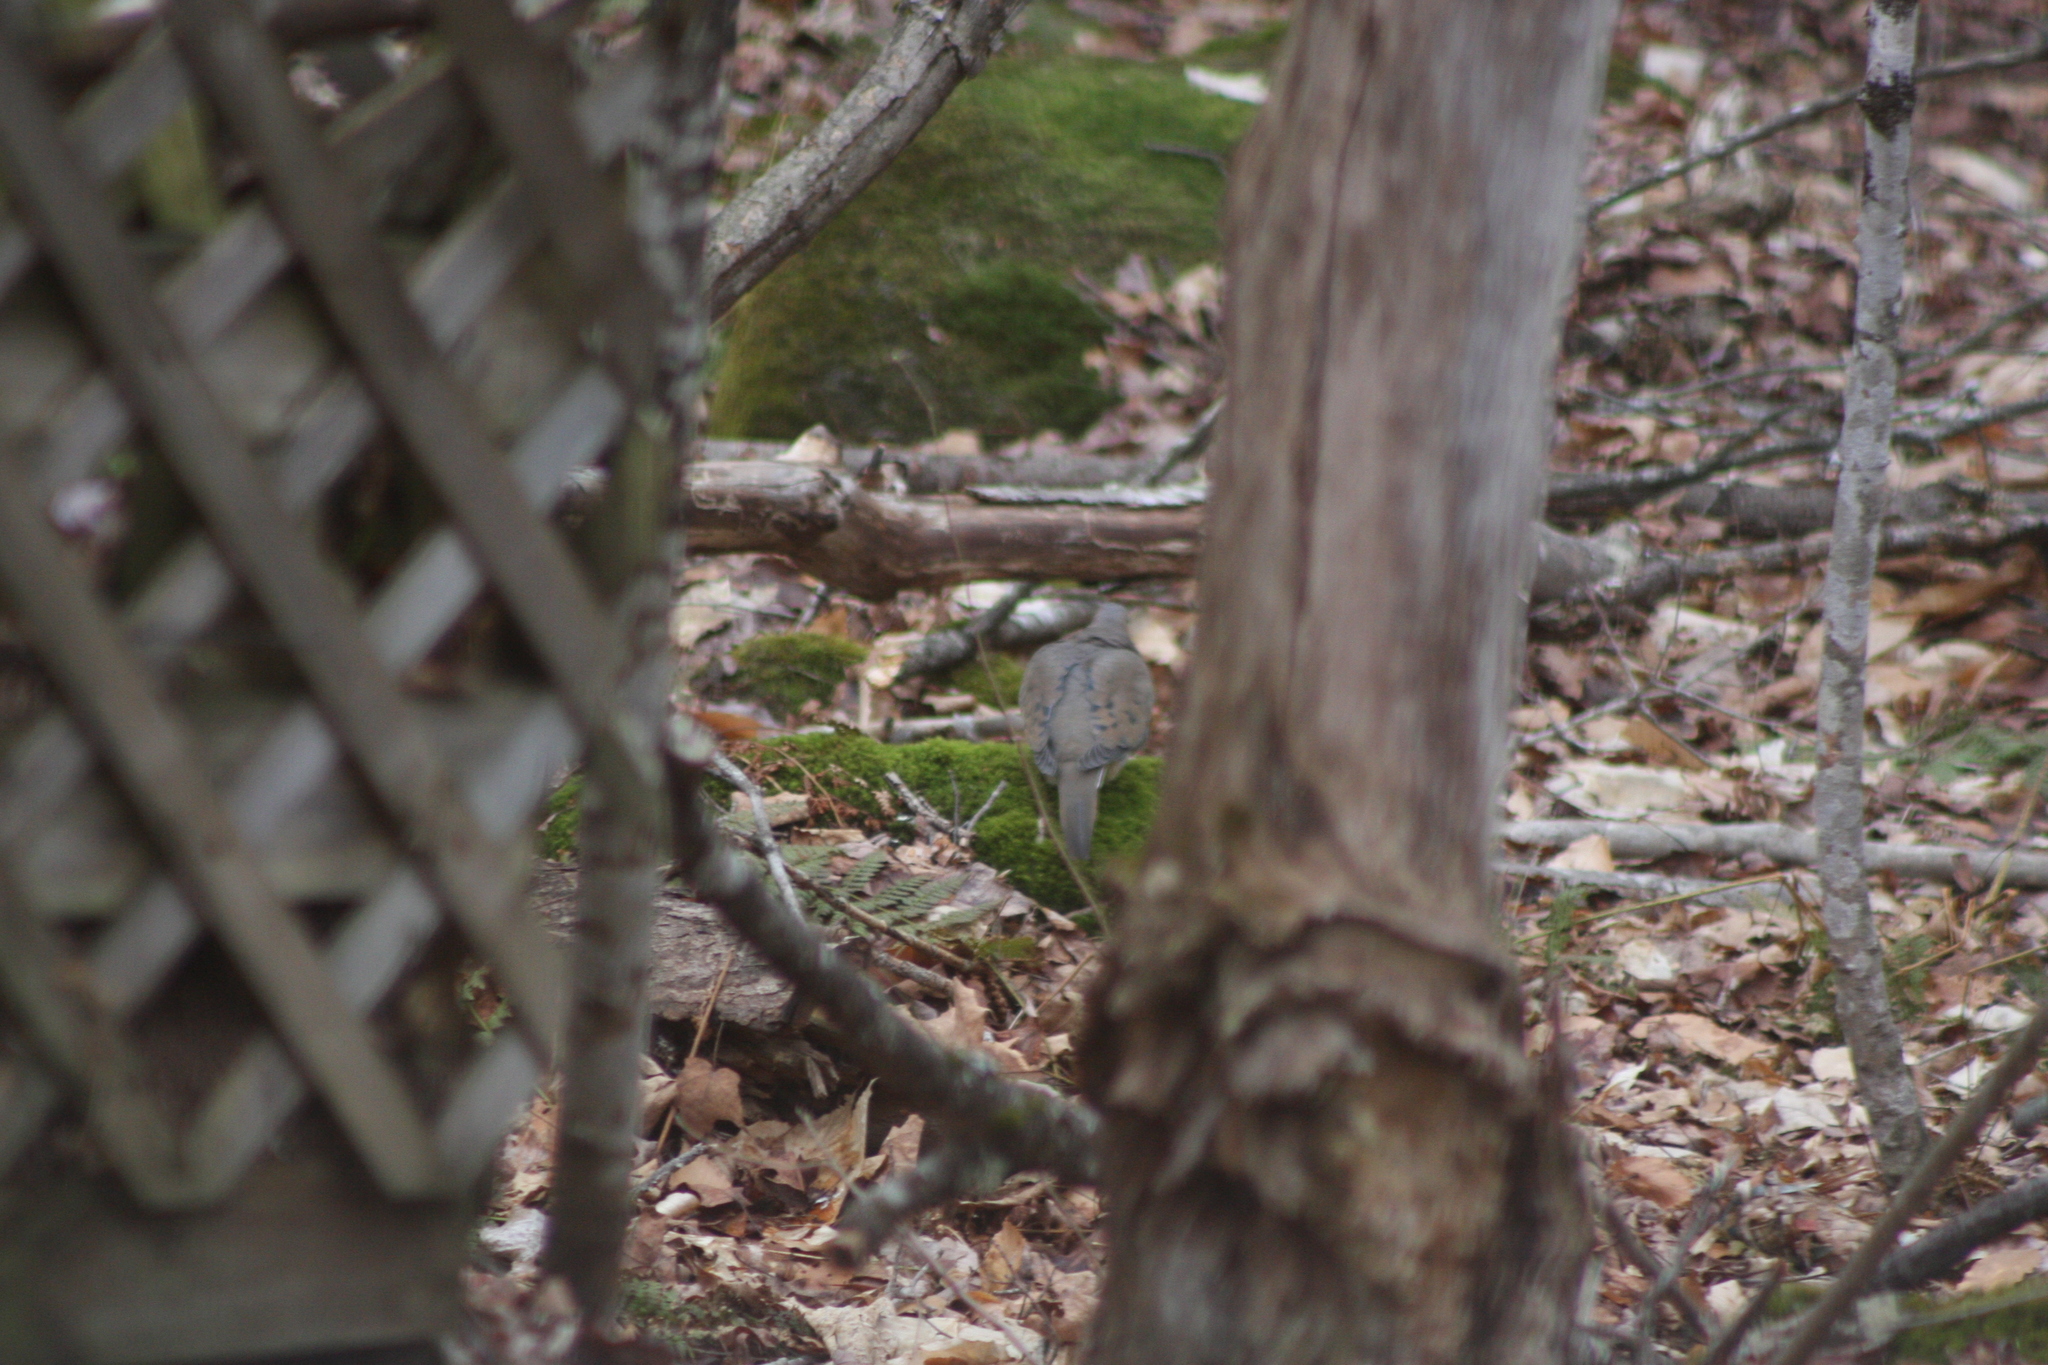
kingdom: Animalia
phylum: Chordata
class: Aves
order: Columbiformes
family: Columbidae
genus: Zenaida
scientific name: Zenaida macroura
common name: Mourning dove
